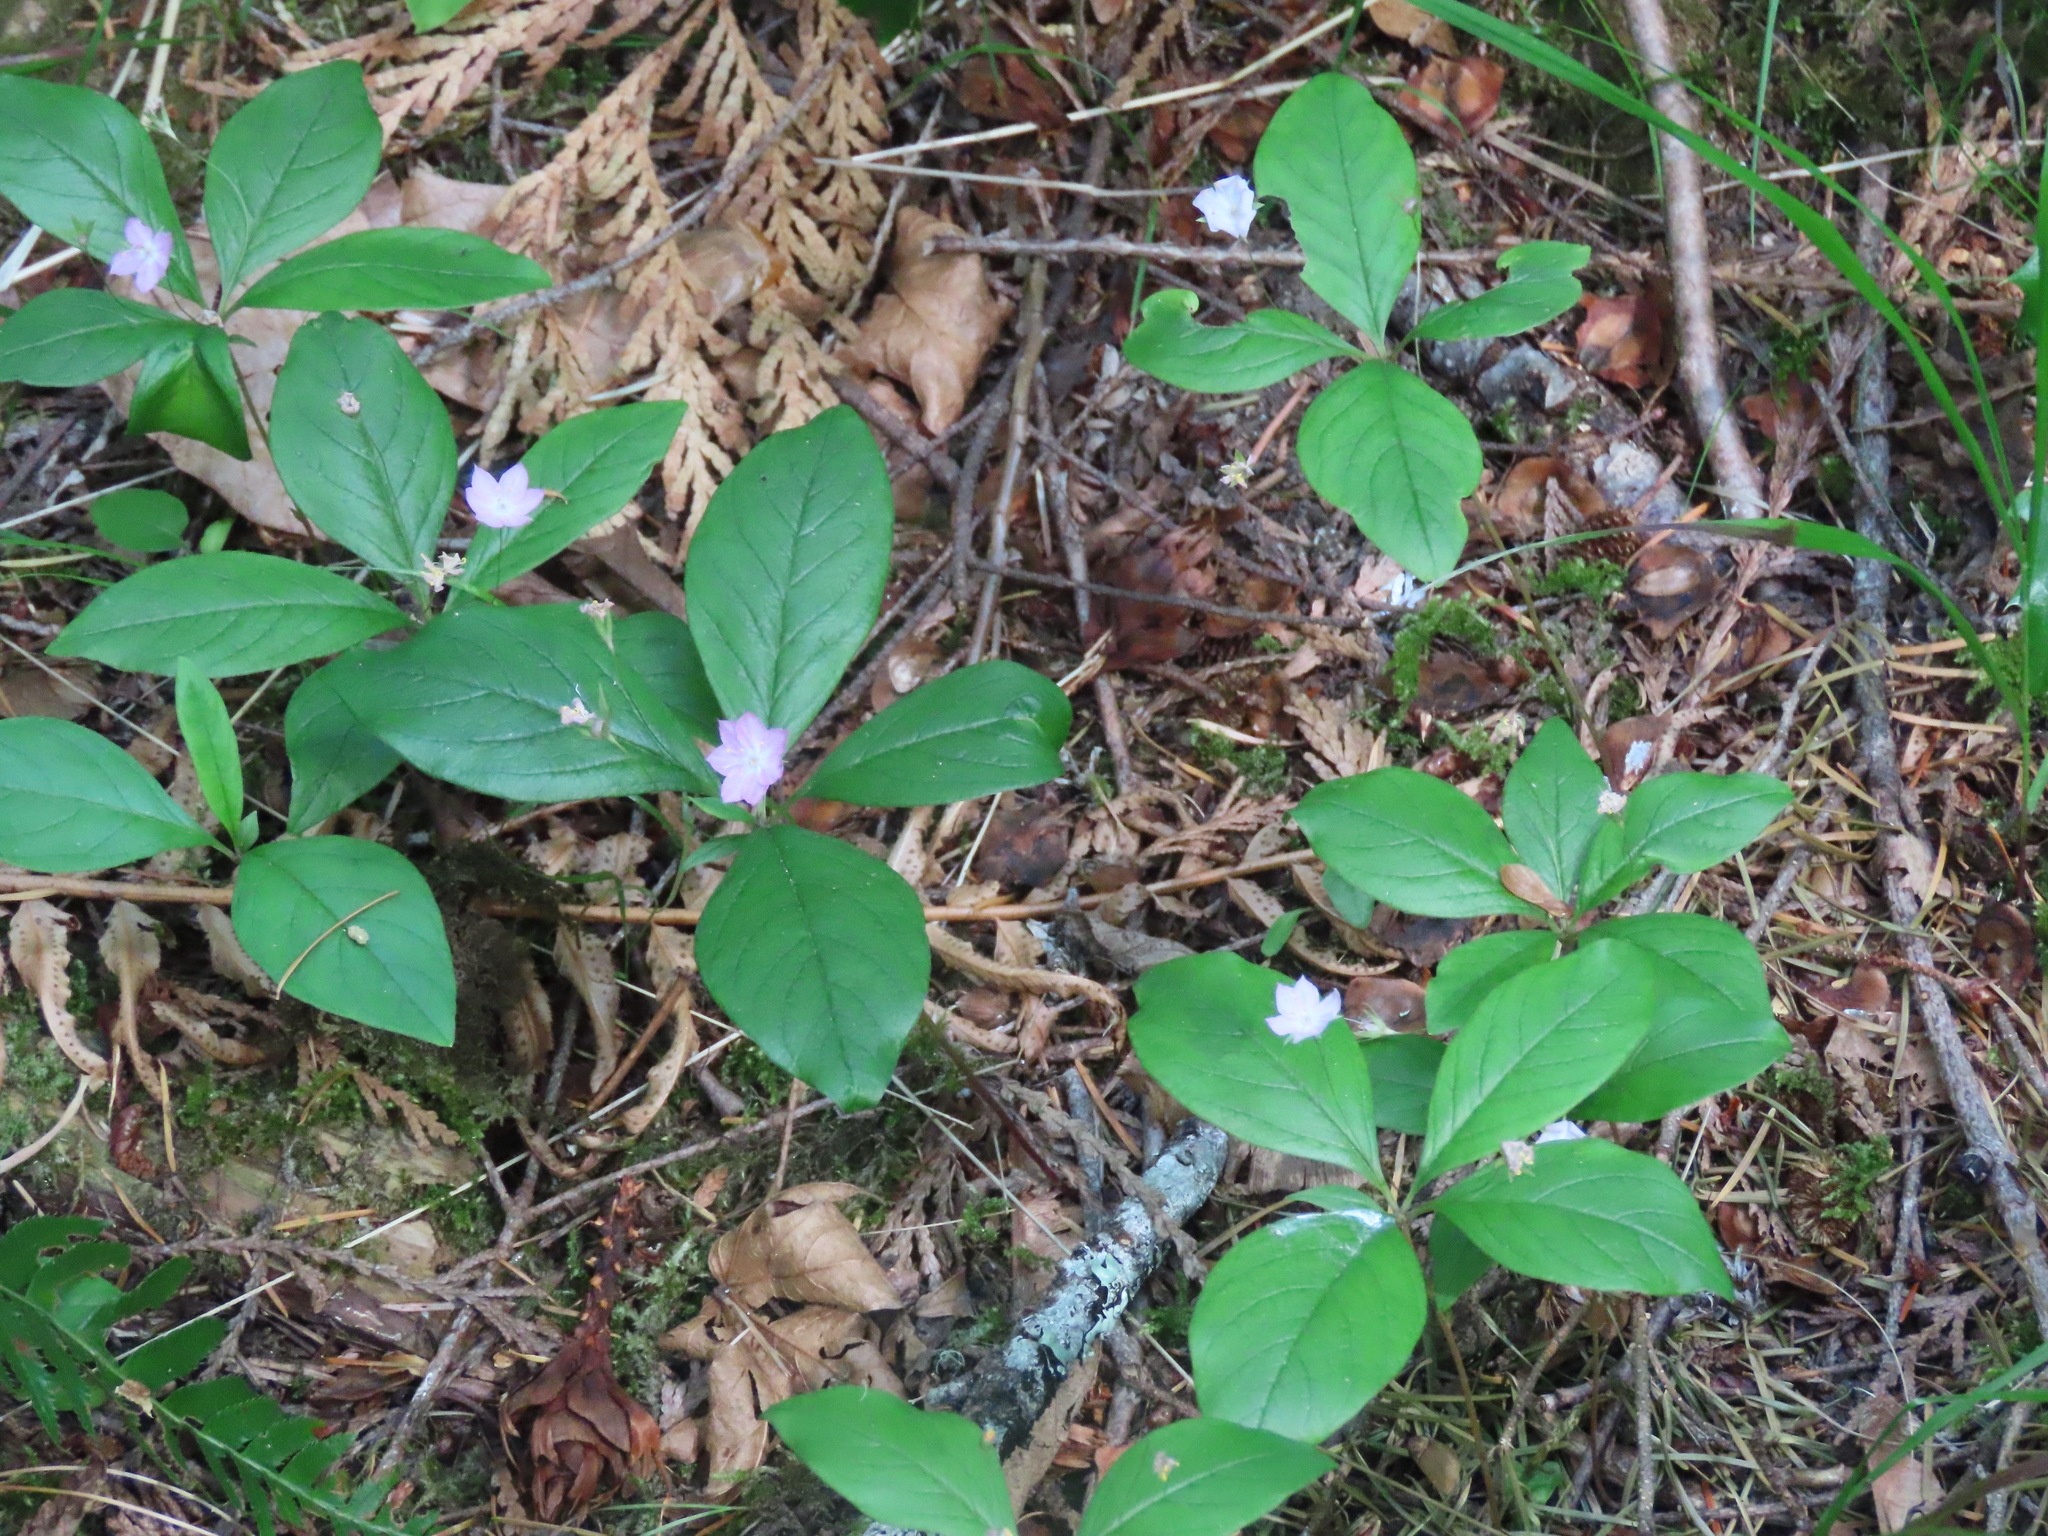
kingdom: Plantae
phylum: Tracheophyta
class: Magnoliopsida
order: Ericales
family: Primulaceae
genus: Lysimachia
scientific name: Lysimachia latifolia
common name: Pacific starflower
